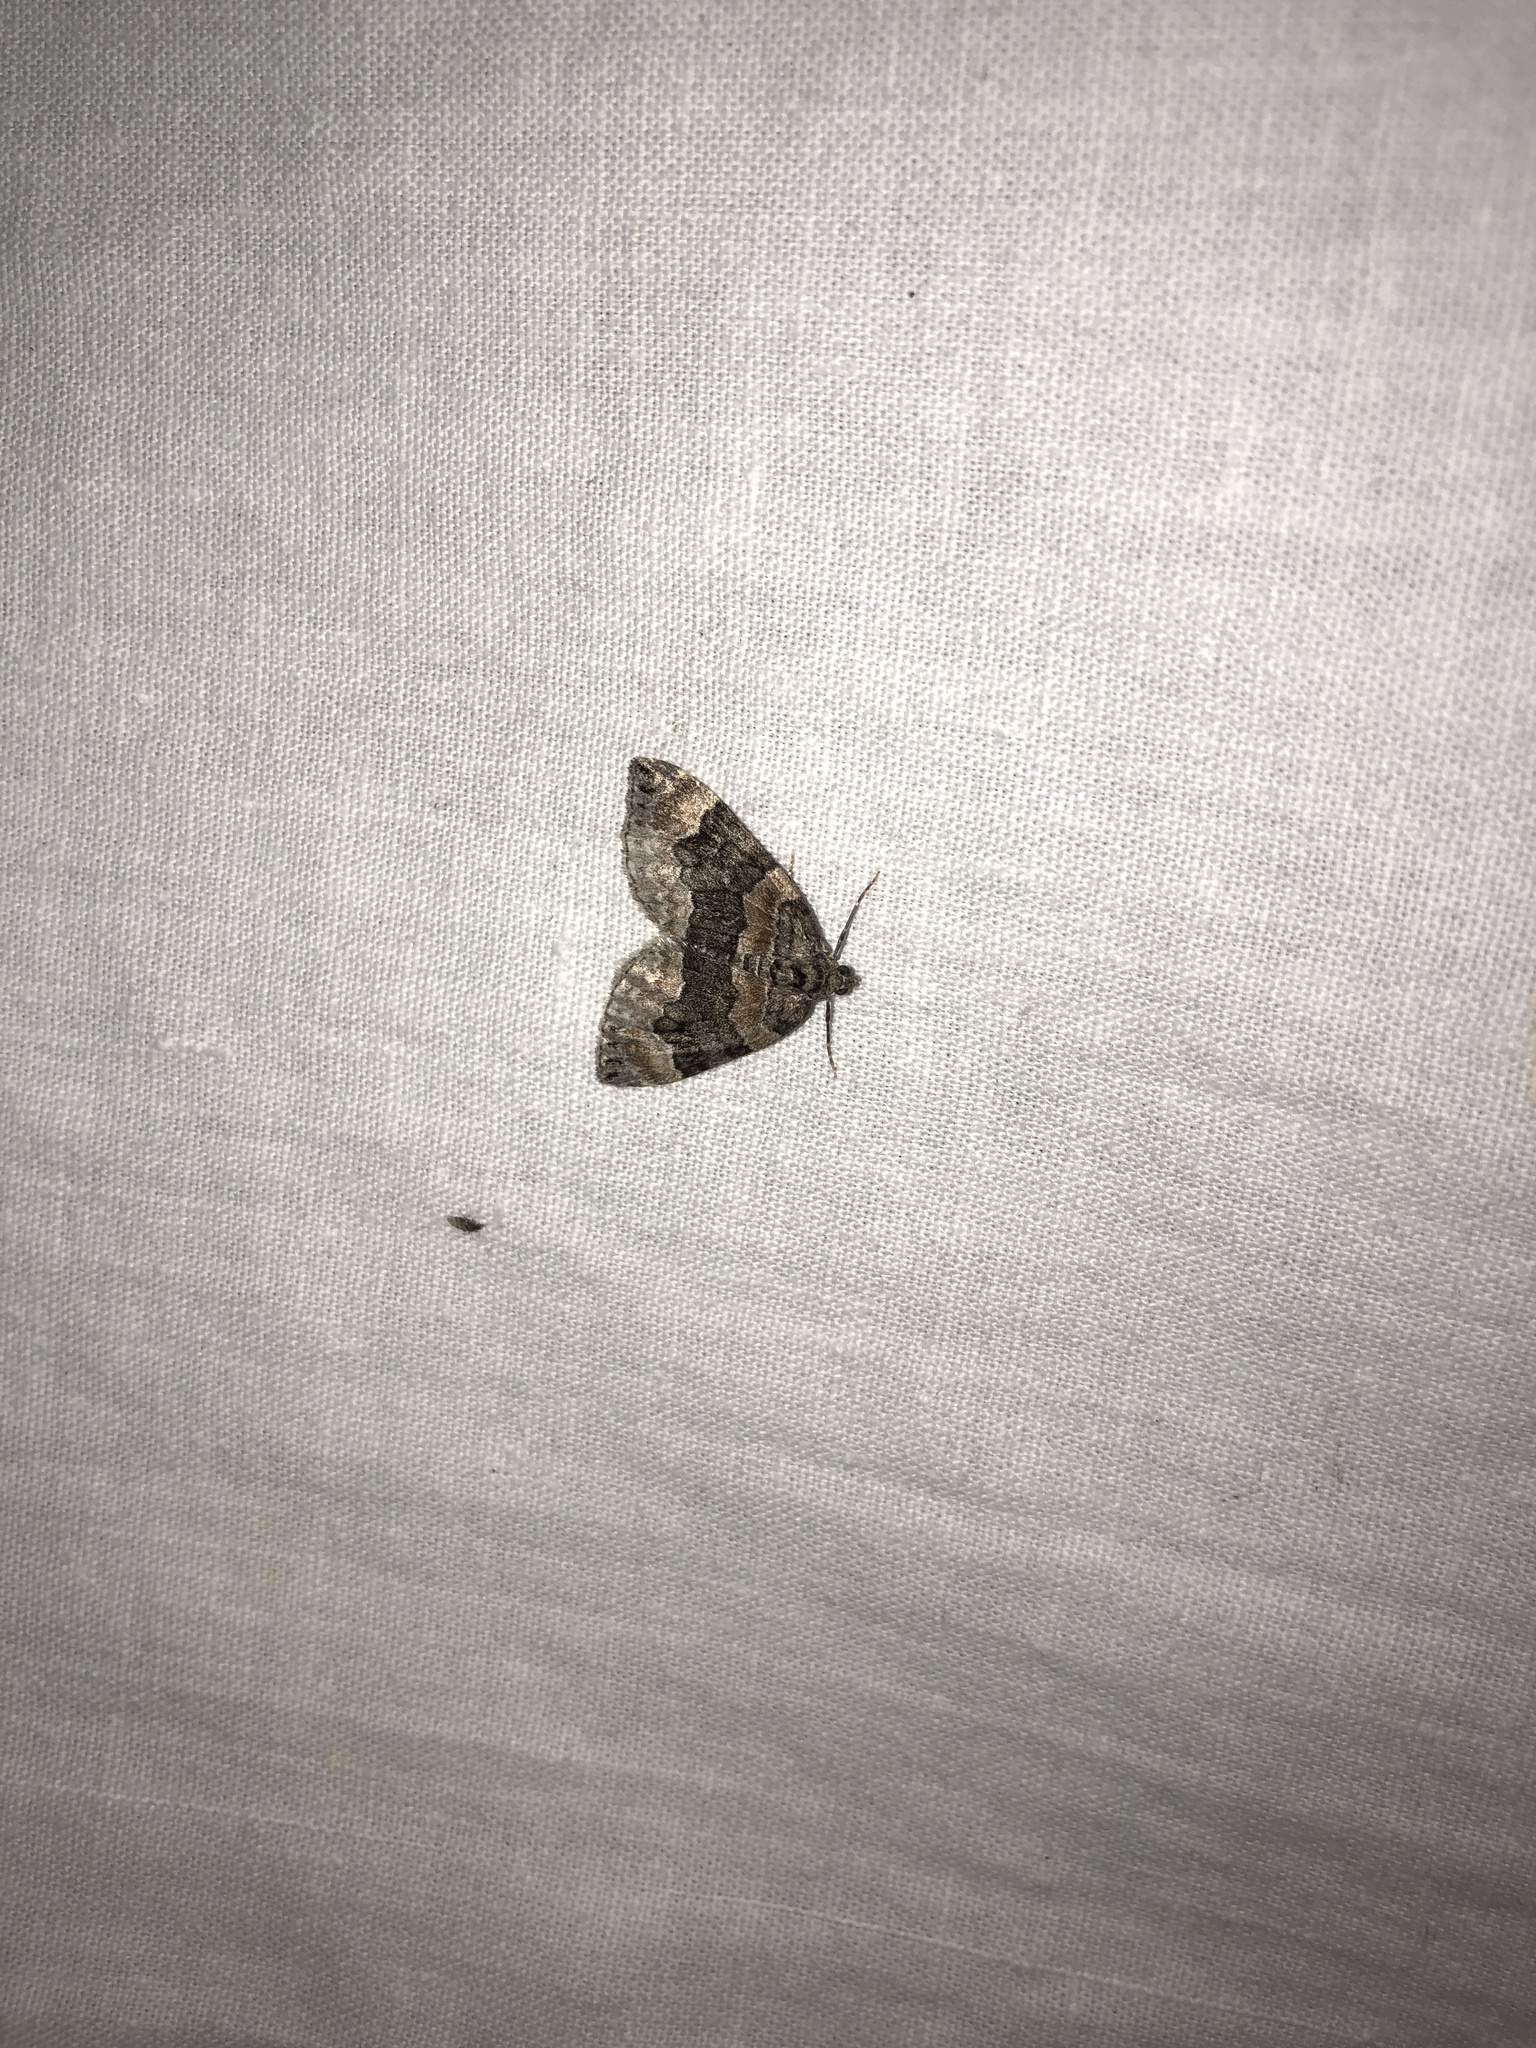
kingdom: Animalia
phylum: Arthropoda
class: Insecta
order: Lepidoptera
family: Geometridae
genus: Euphyia
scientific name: Euphyia intermediata
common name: Sharp-angled carpet
